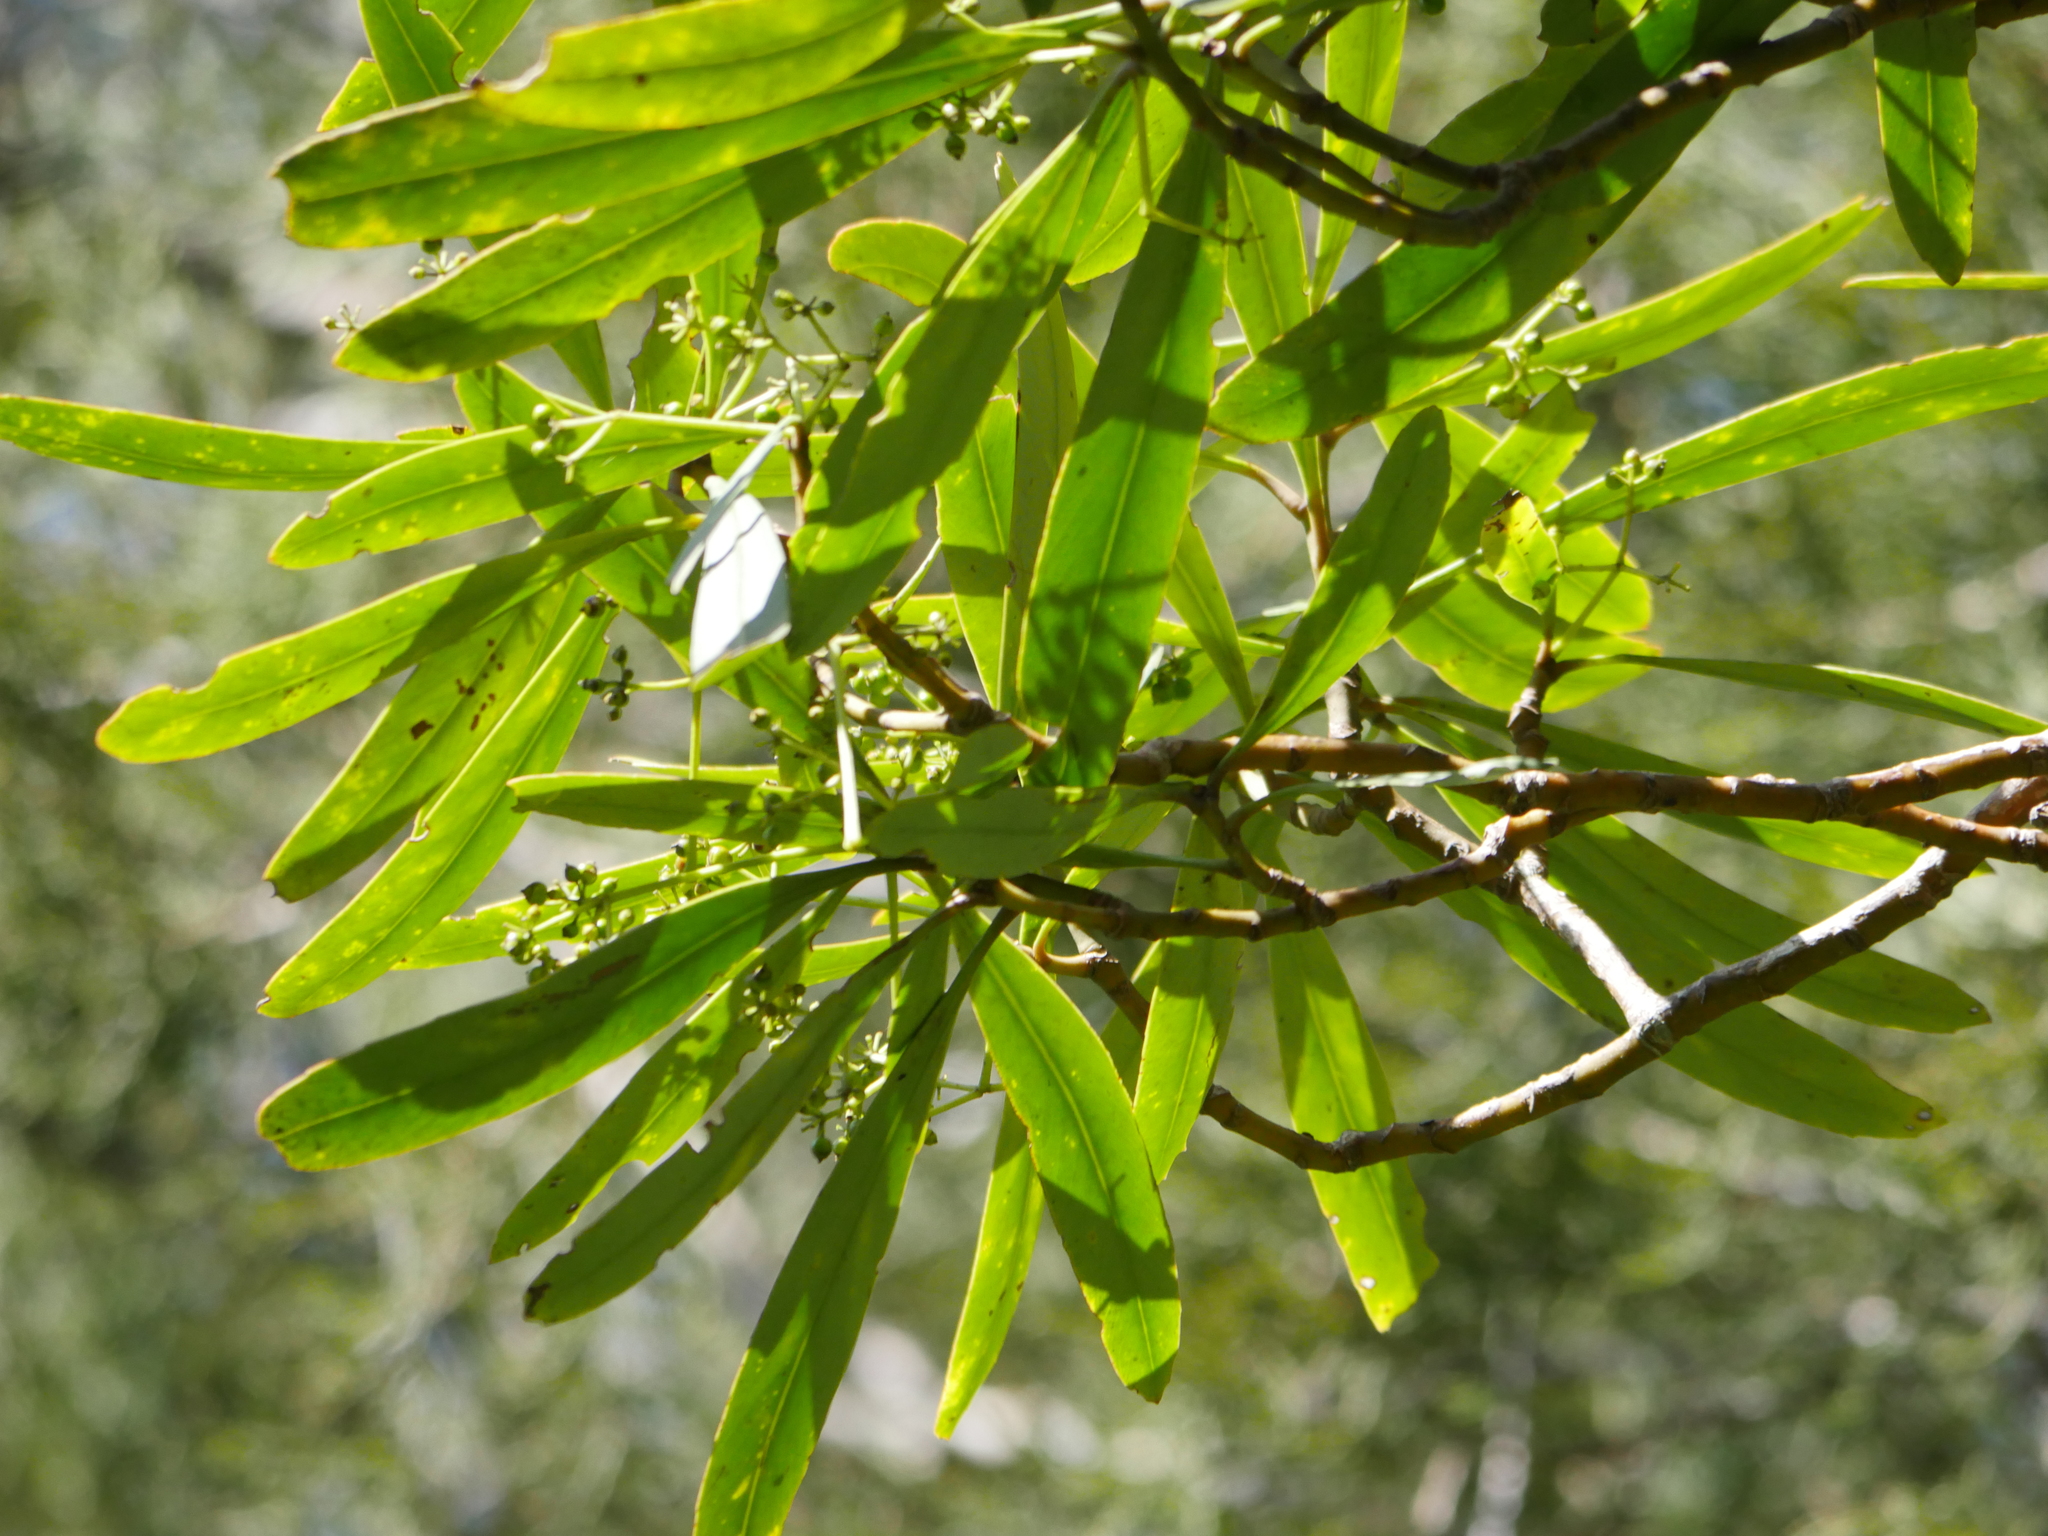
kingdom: Plantae
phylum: Tracheophyta
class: Magnoliopsida
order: Ericales
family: Primulaceae
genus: Myrsine
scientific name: Myrsine salicina
